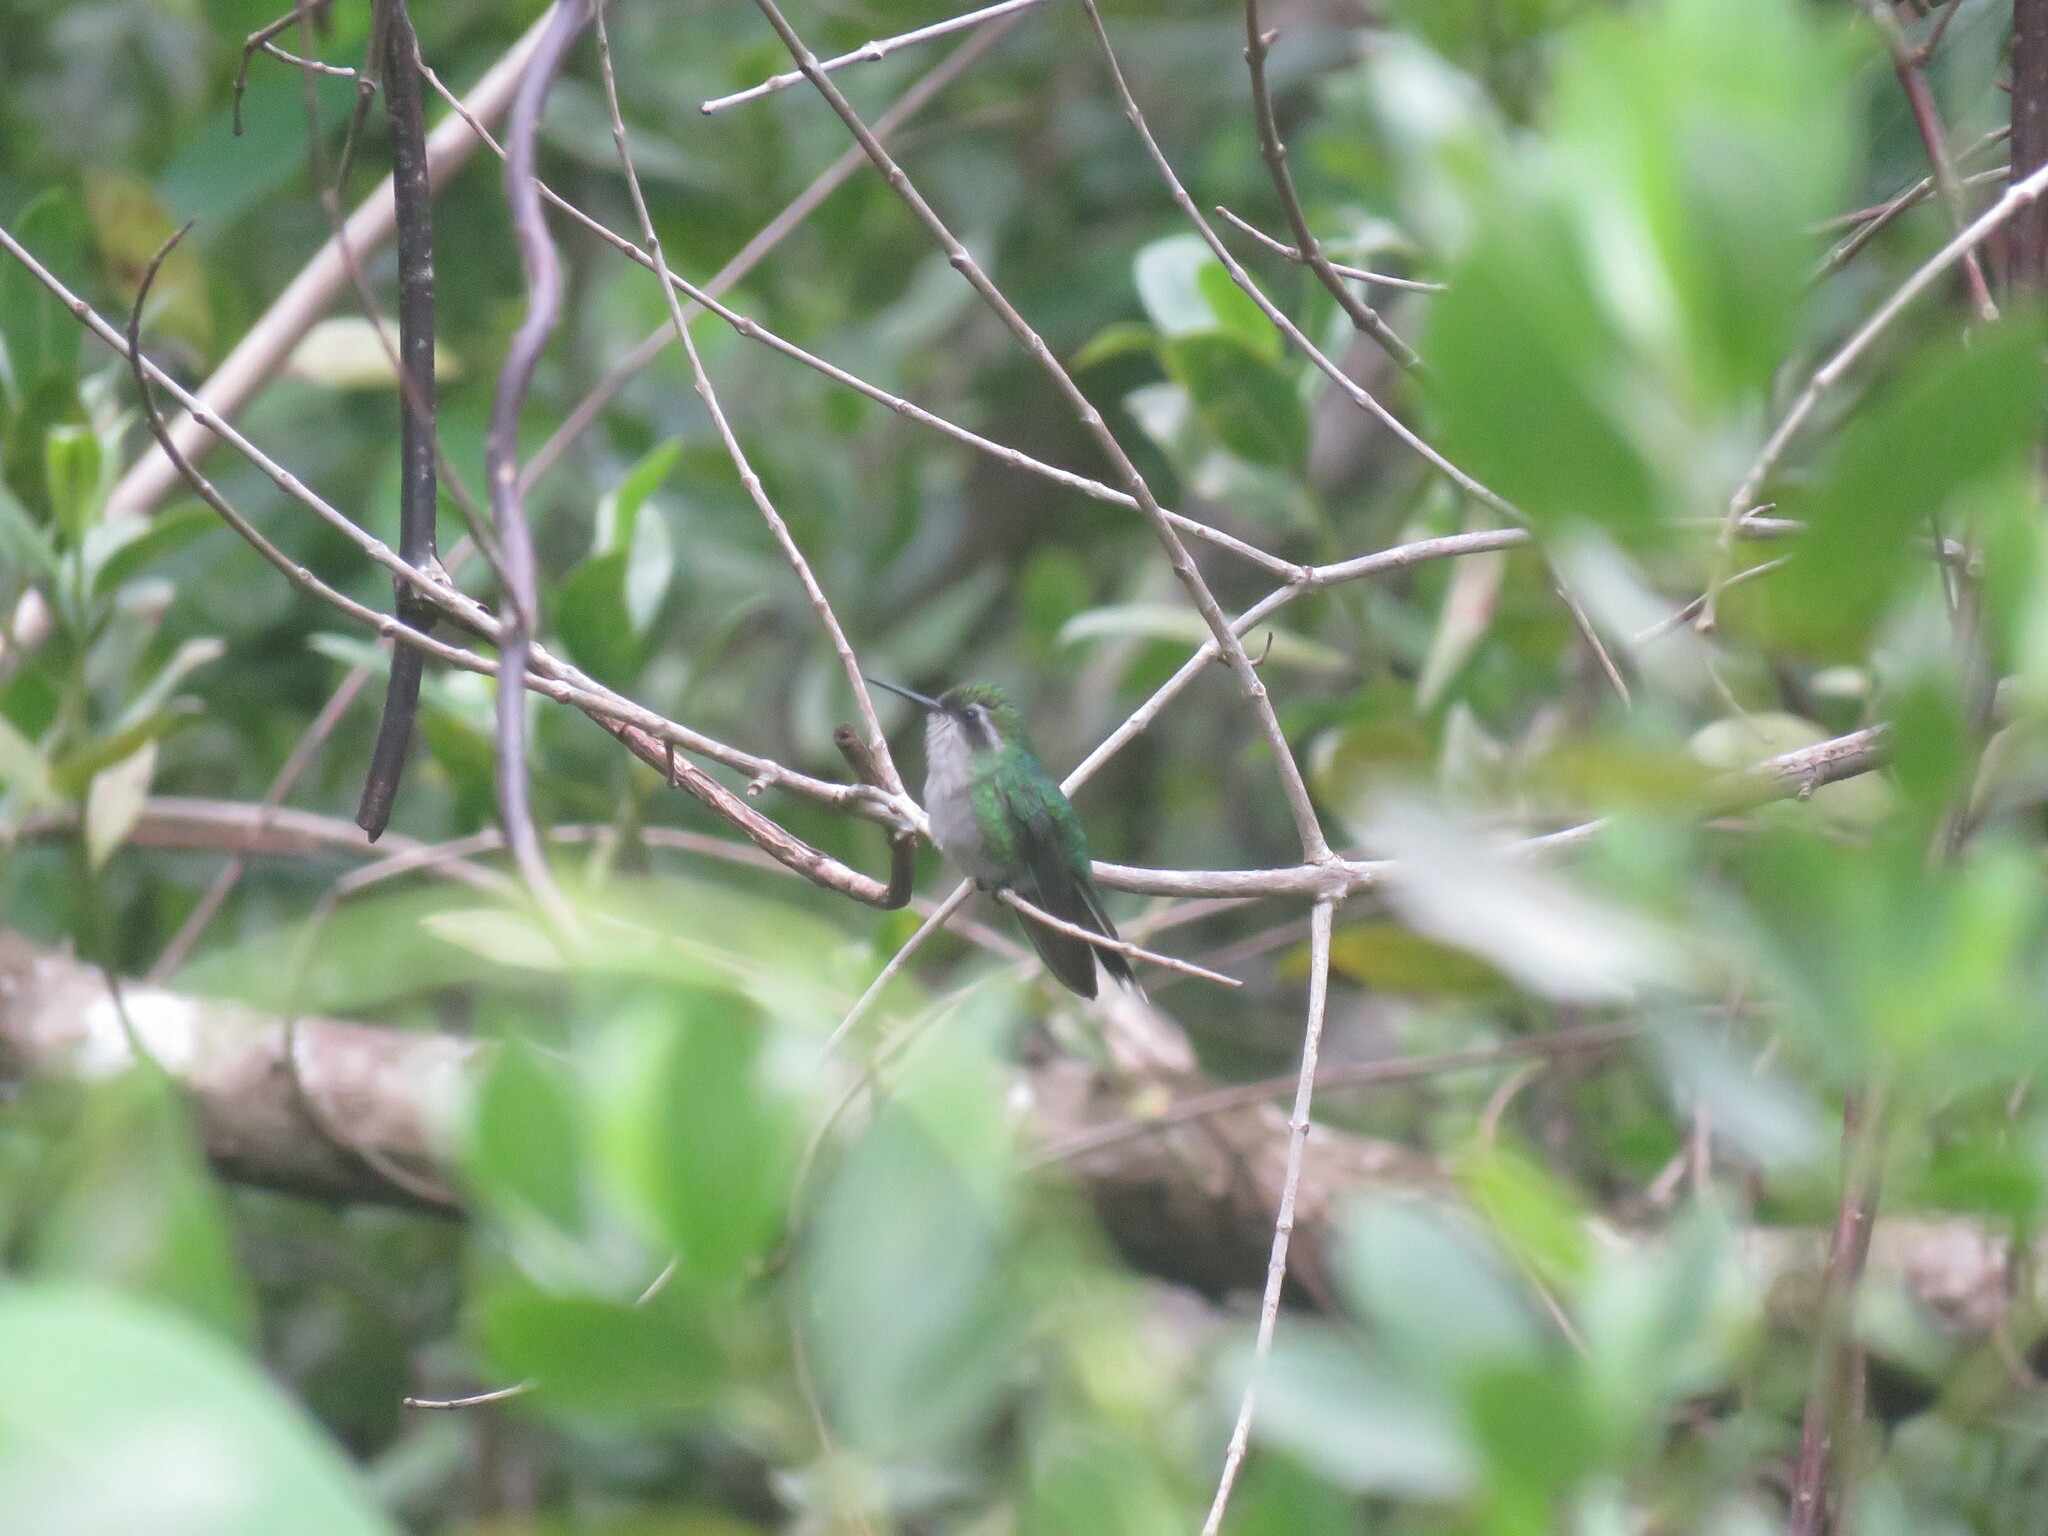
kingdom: Animalia
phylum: Chordata
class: Aves
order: Apodiformes
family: Trochilidae
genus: Cynanthus
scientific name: Cynanthus forficatus
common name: Cozumel emerald
